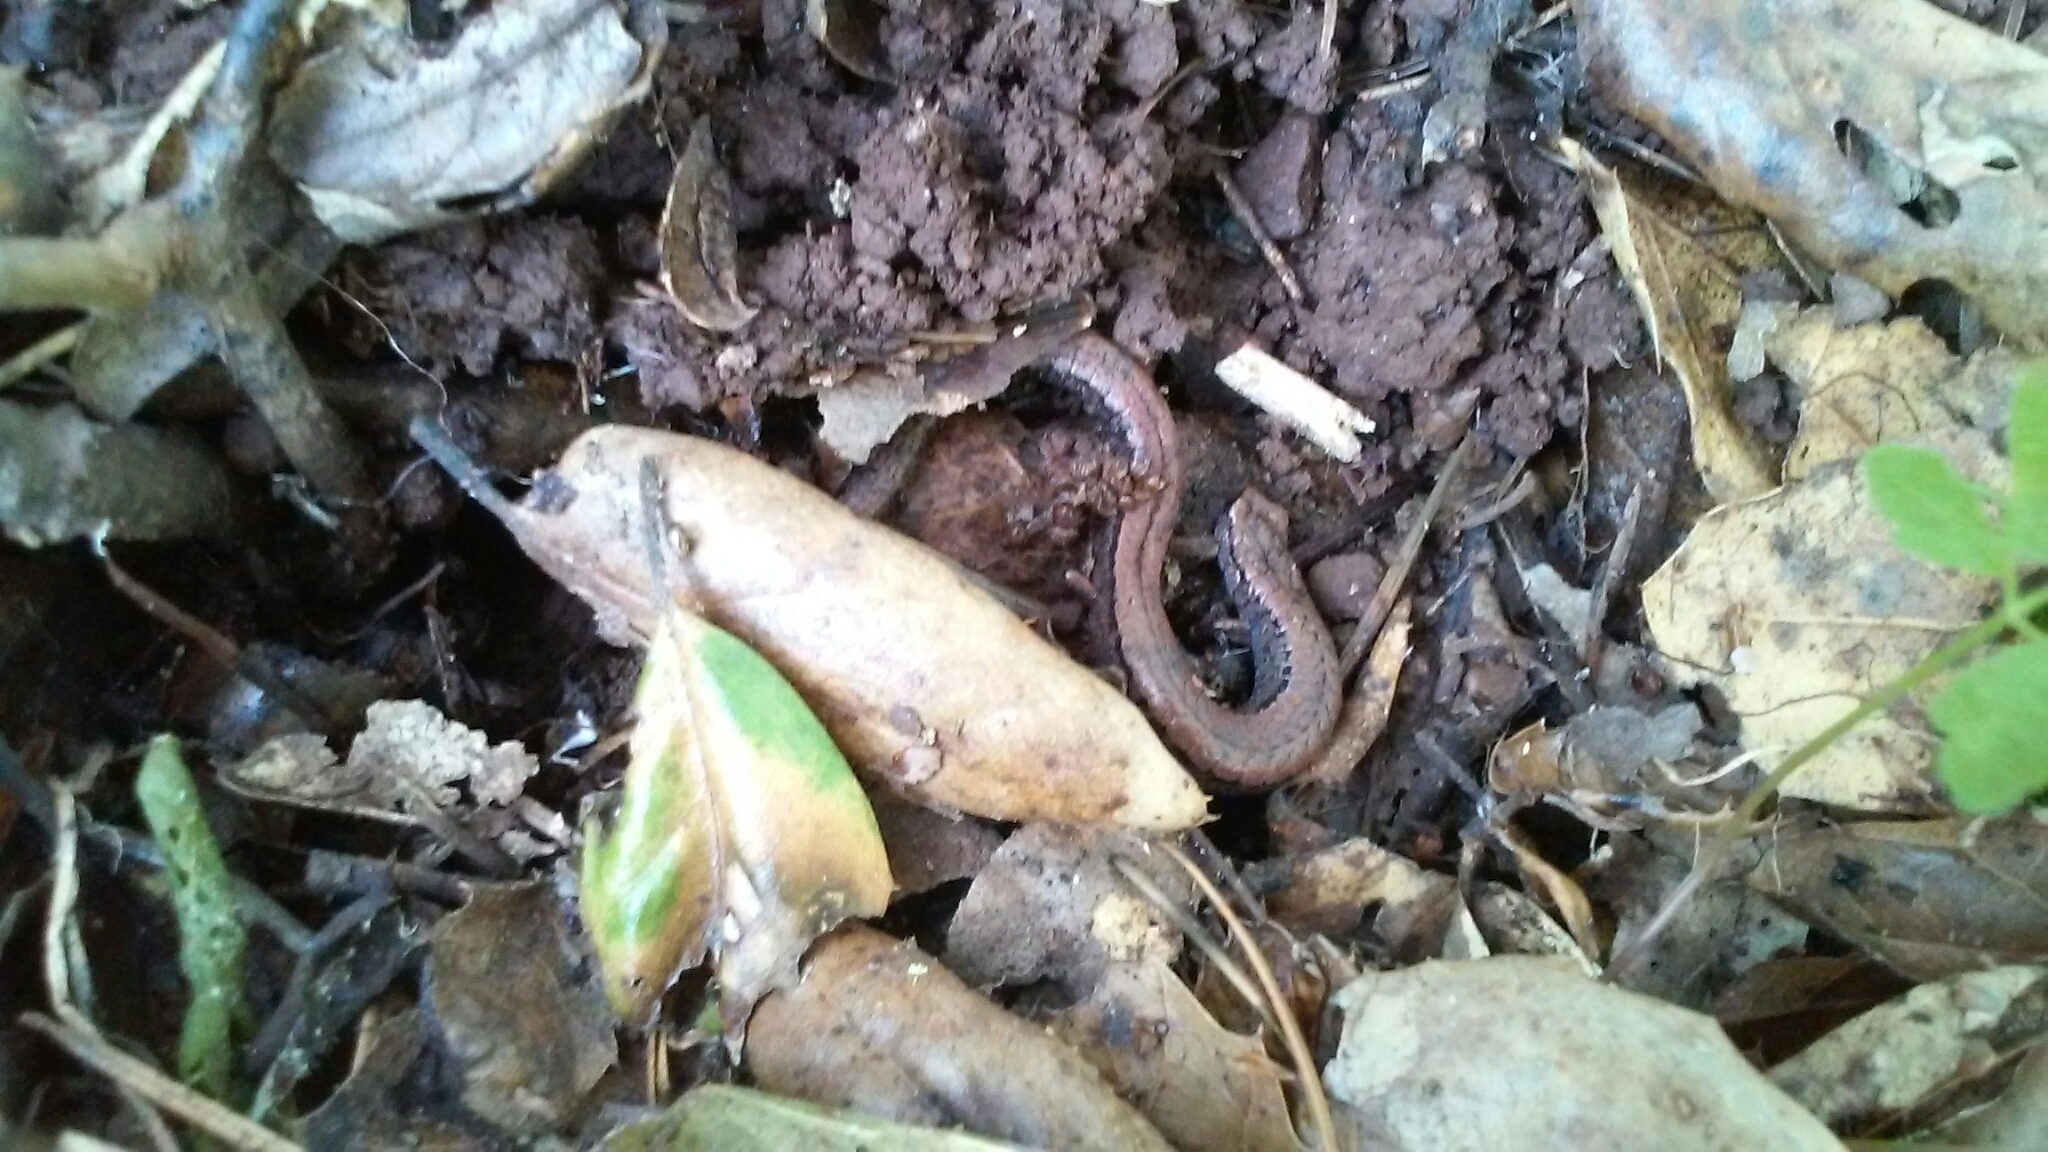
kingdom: Animalia
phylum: Chordata
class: Amphibia
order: Caudata
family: Plethodontidae
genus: Batrachoseps
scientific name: Batrachoseps attenuatus
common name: California slender salamander
